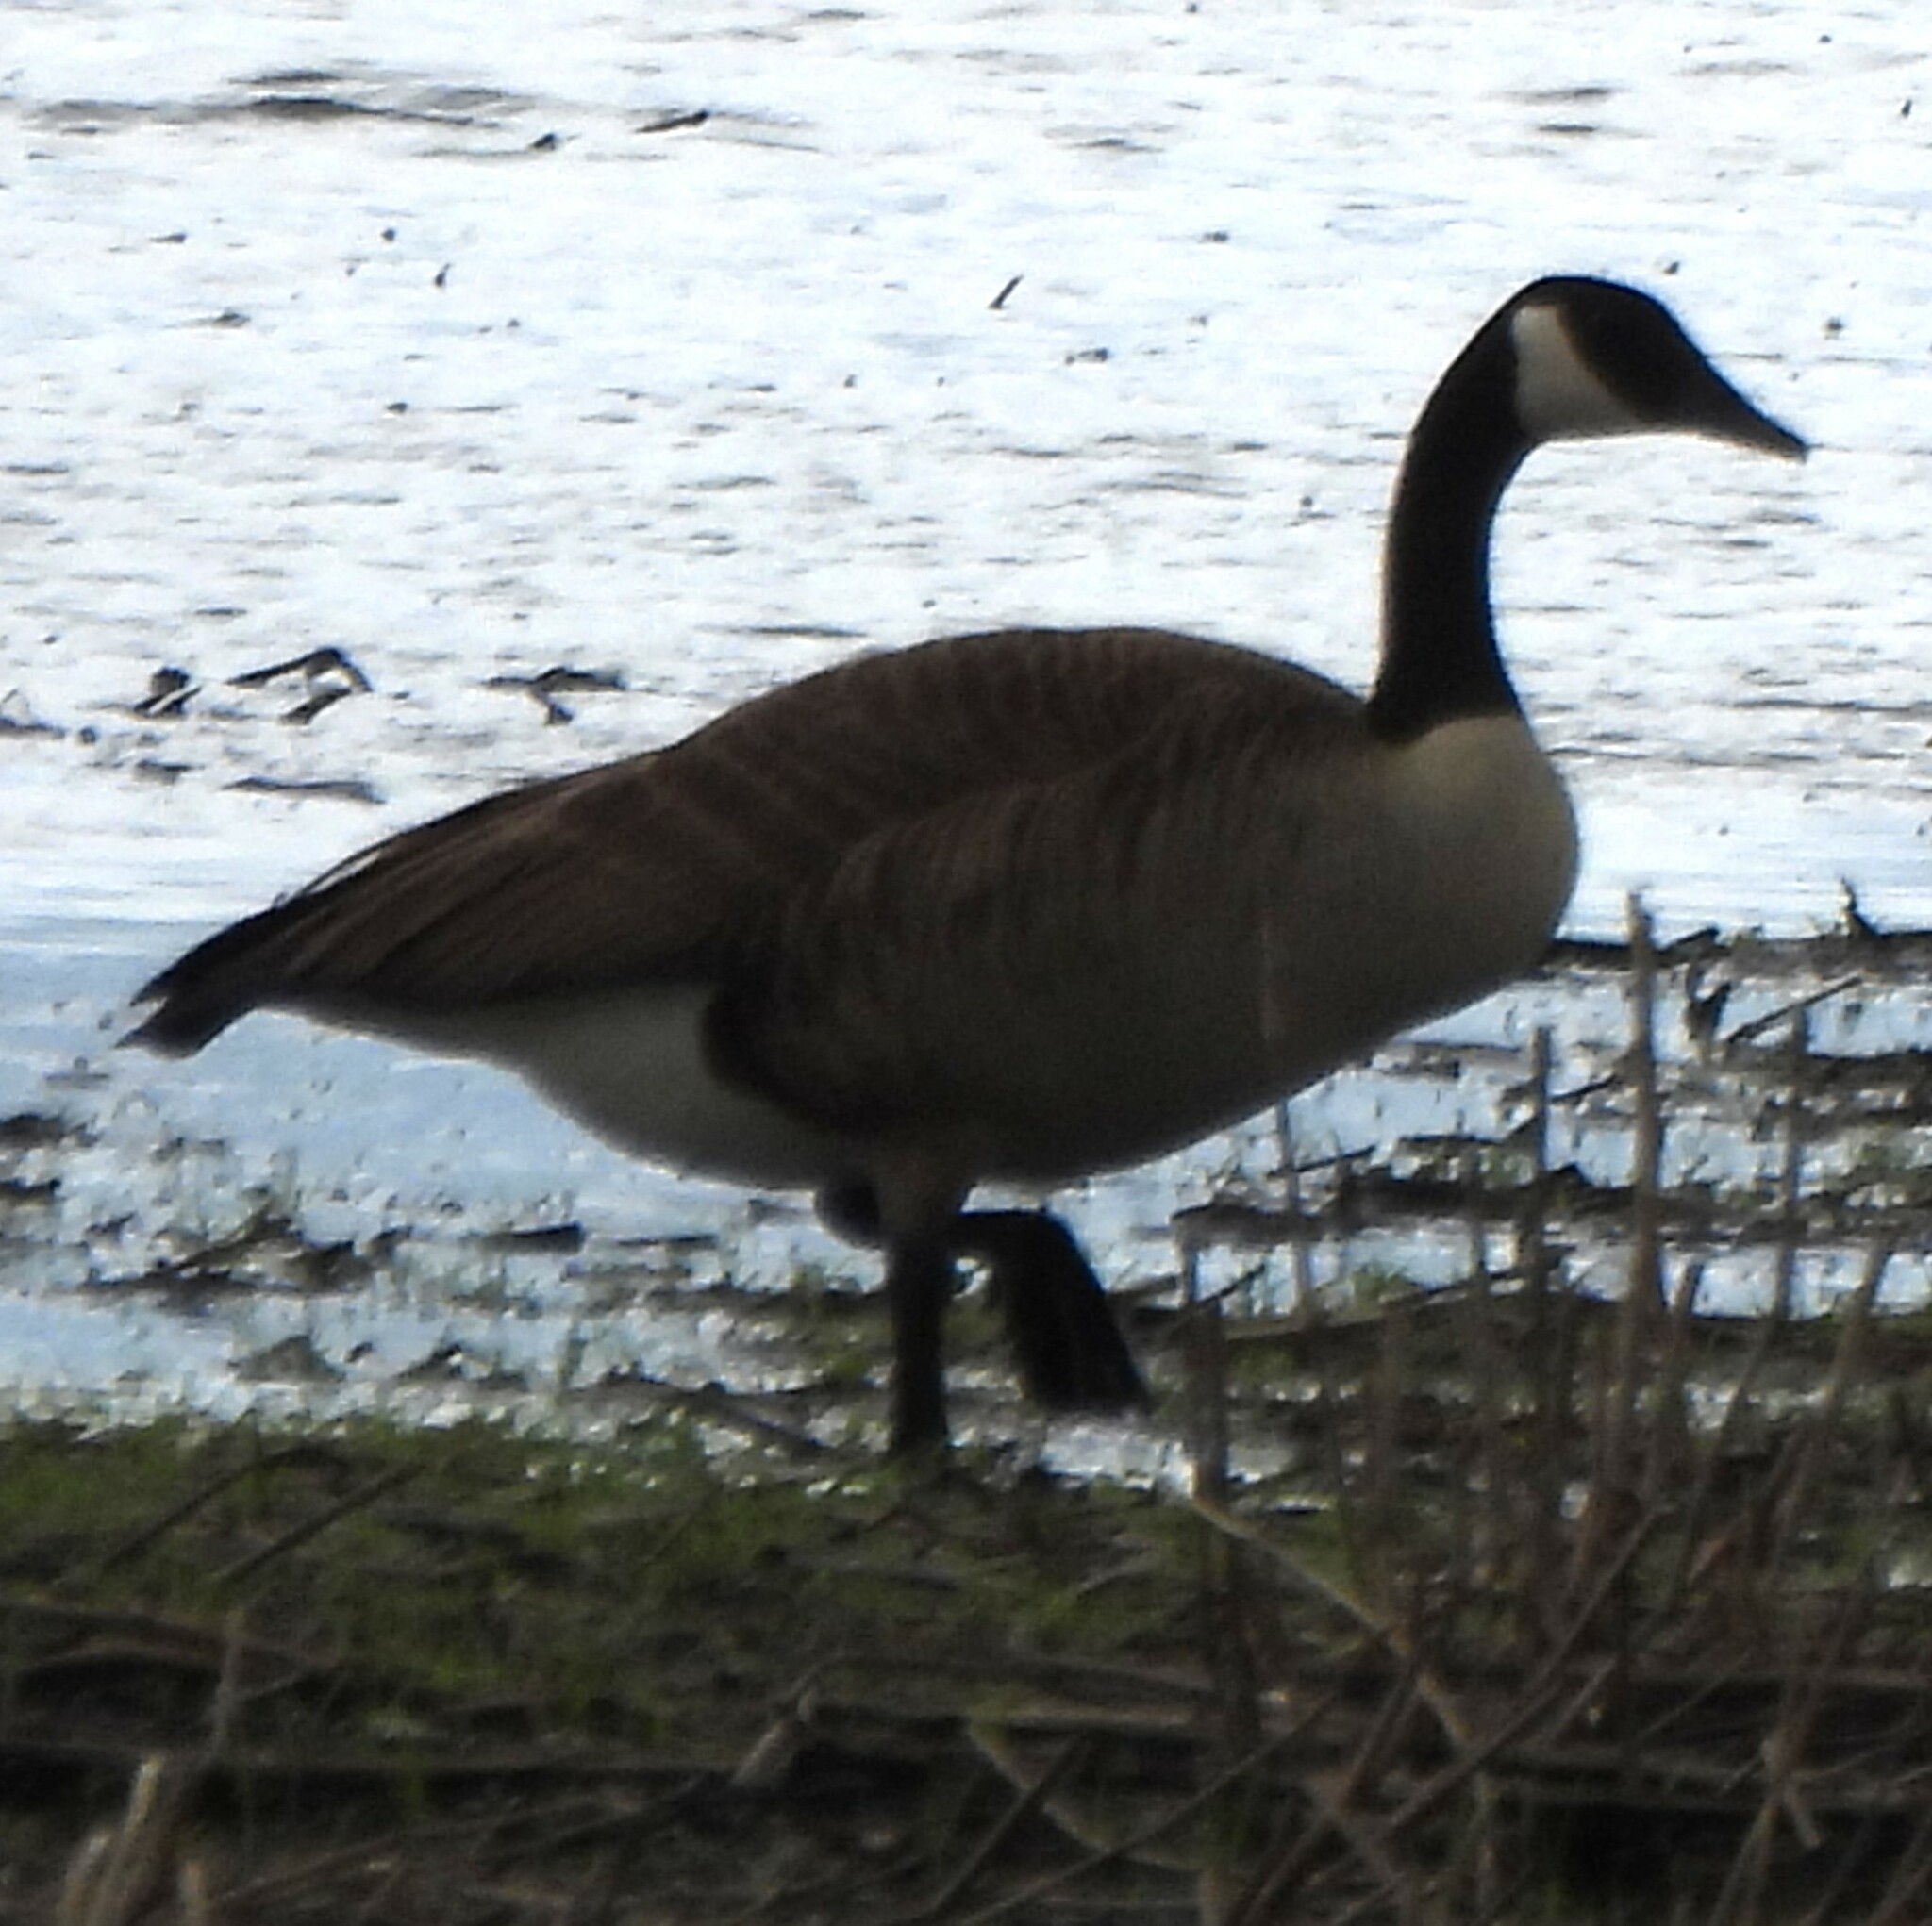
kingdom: Animalia
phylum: Chordata
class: Aves
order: Anseriformes
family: Anatidae
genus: Branta
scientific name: Branta canadensis
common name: Canada goose
